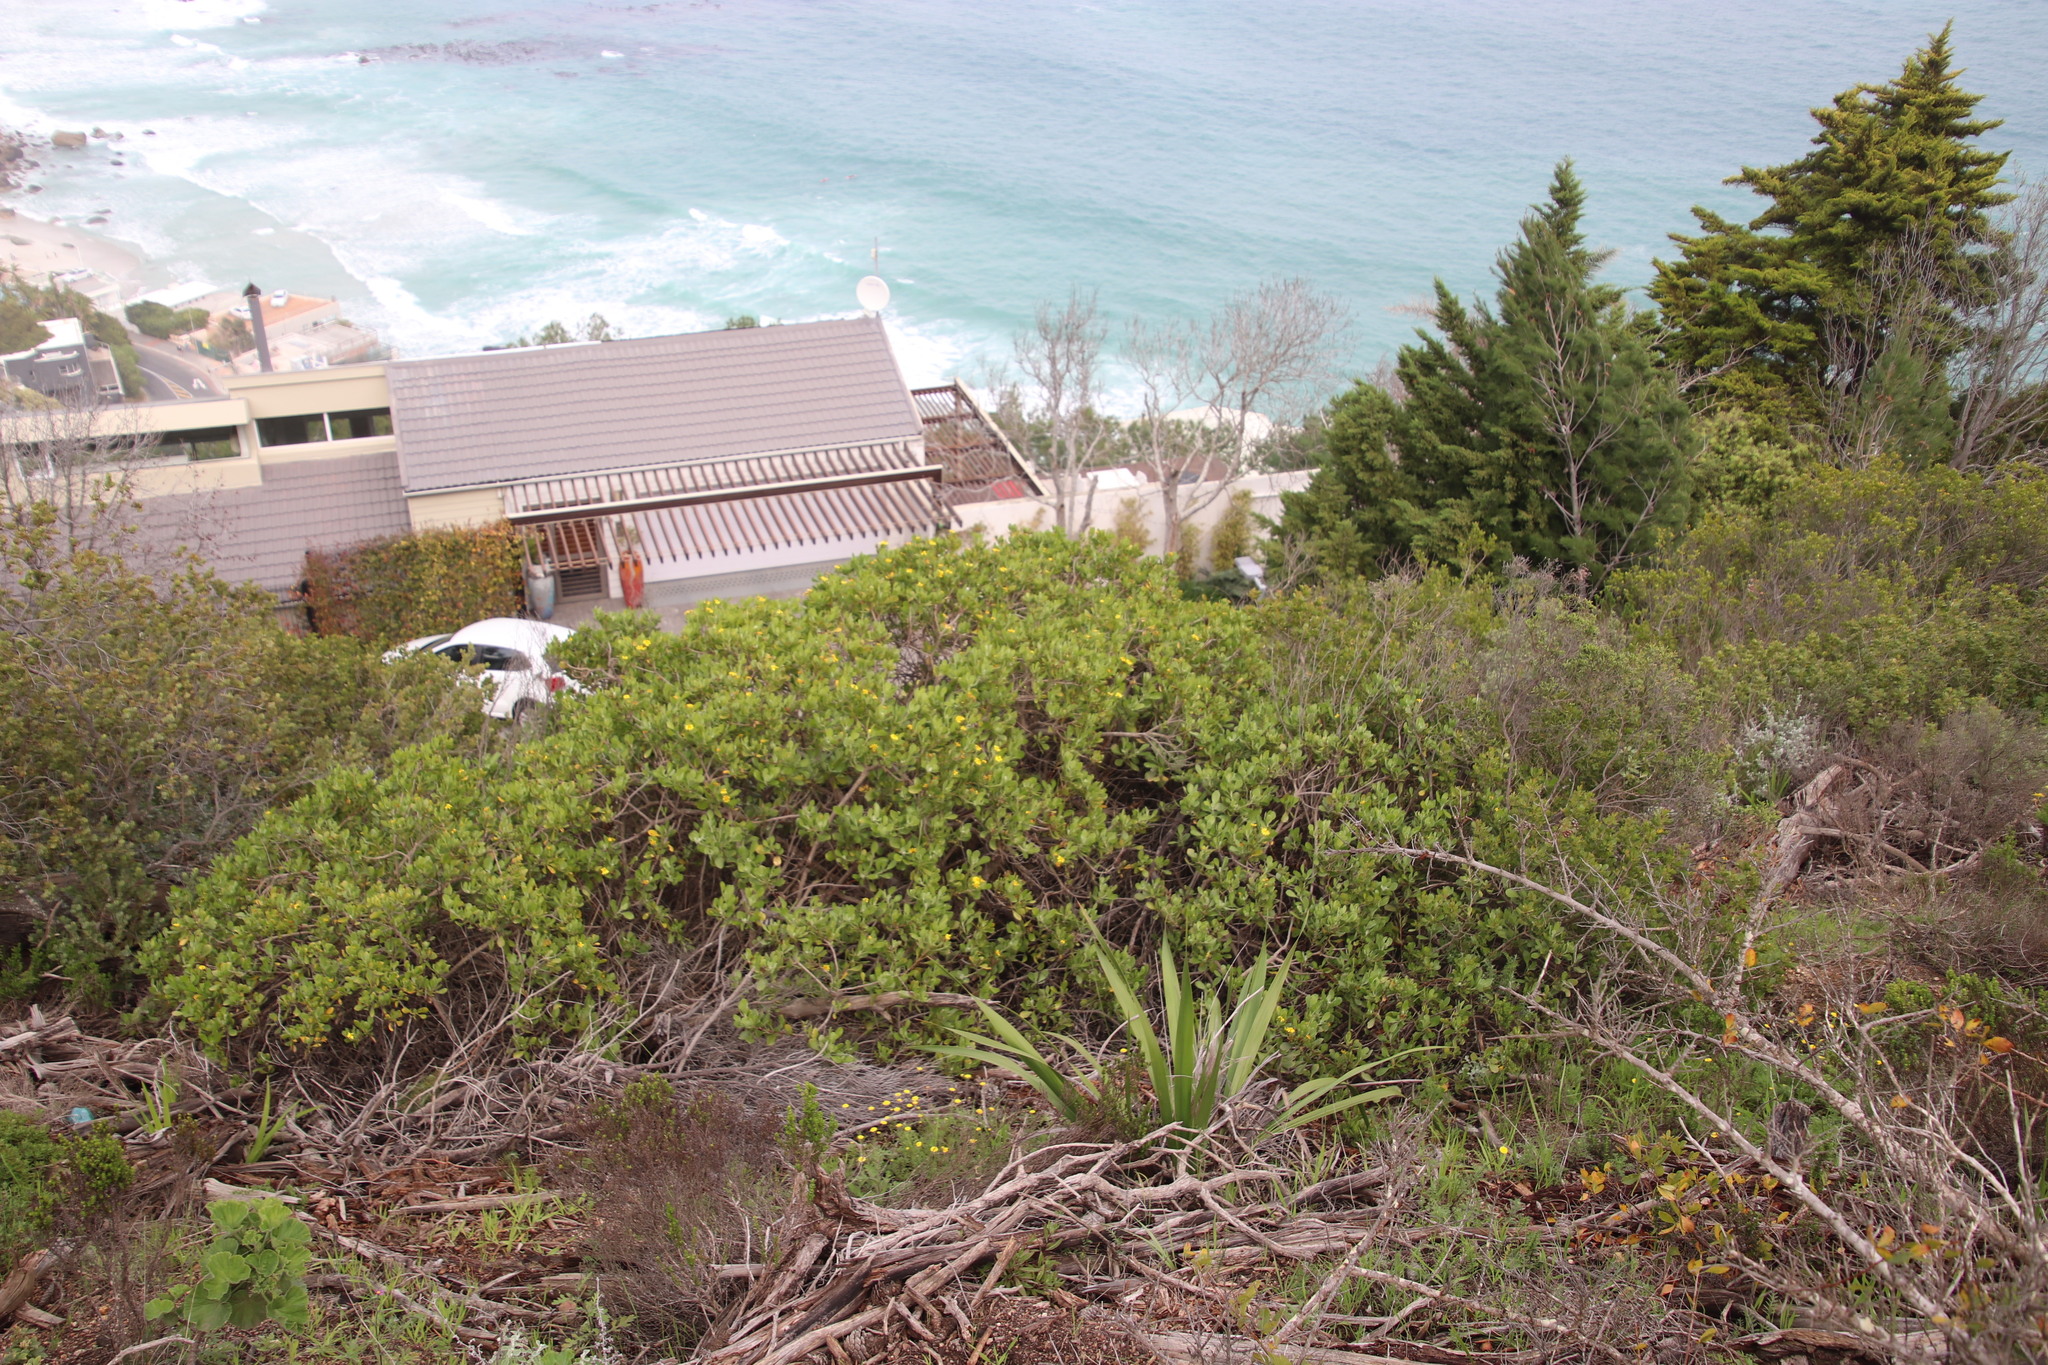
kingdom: Plantae
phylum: Tracheophyta
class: Magnoliopsida
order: Asterales
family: Asteraceae
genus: Osteospermum
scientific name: Osteospermum moniliferum
